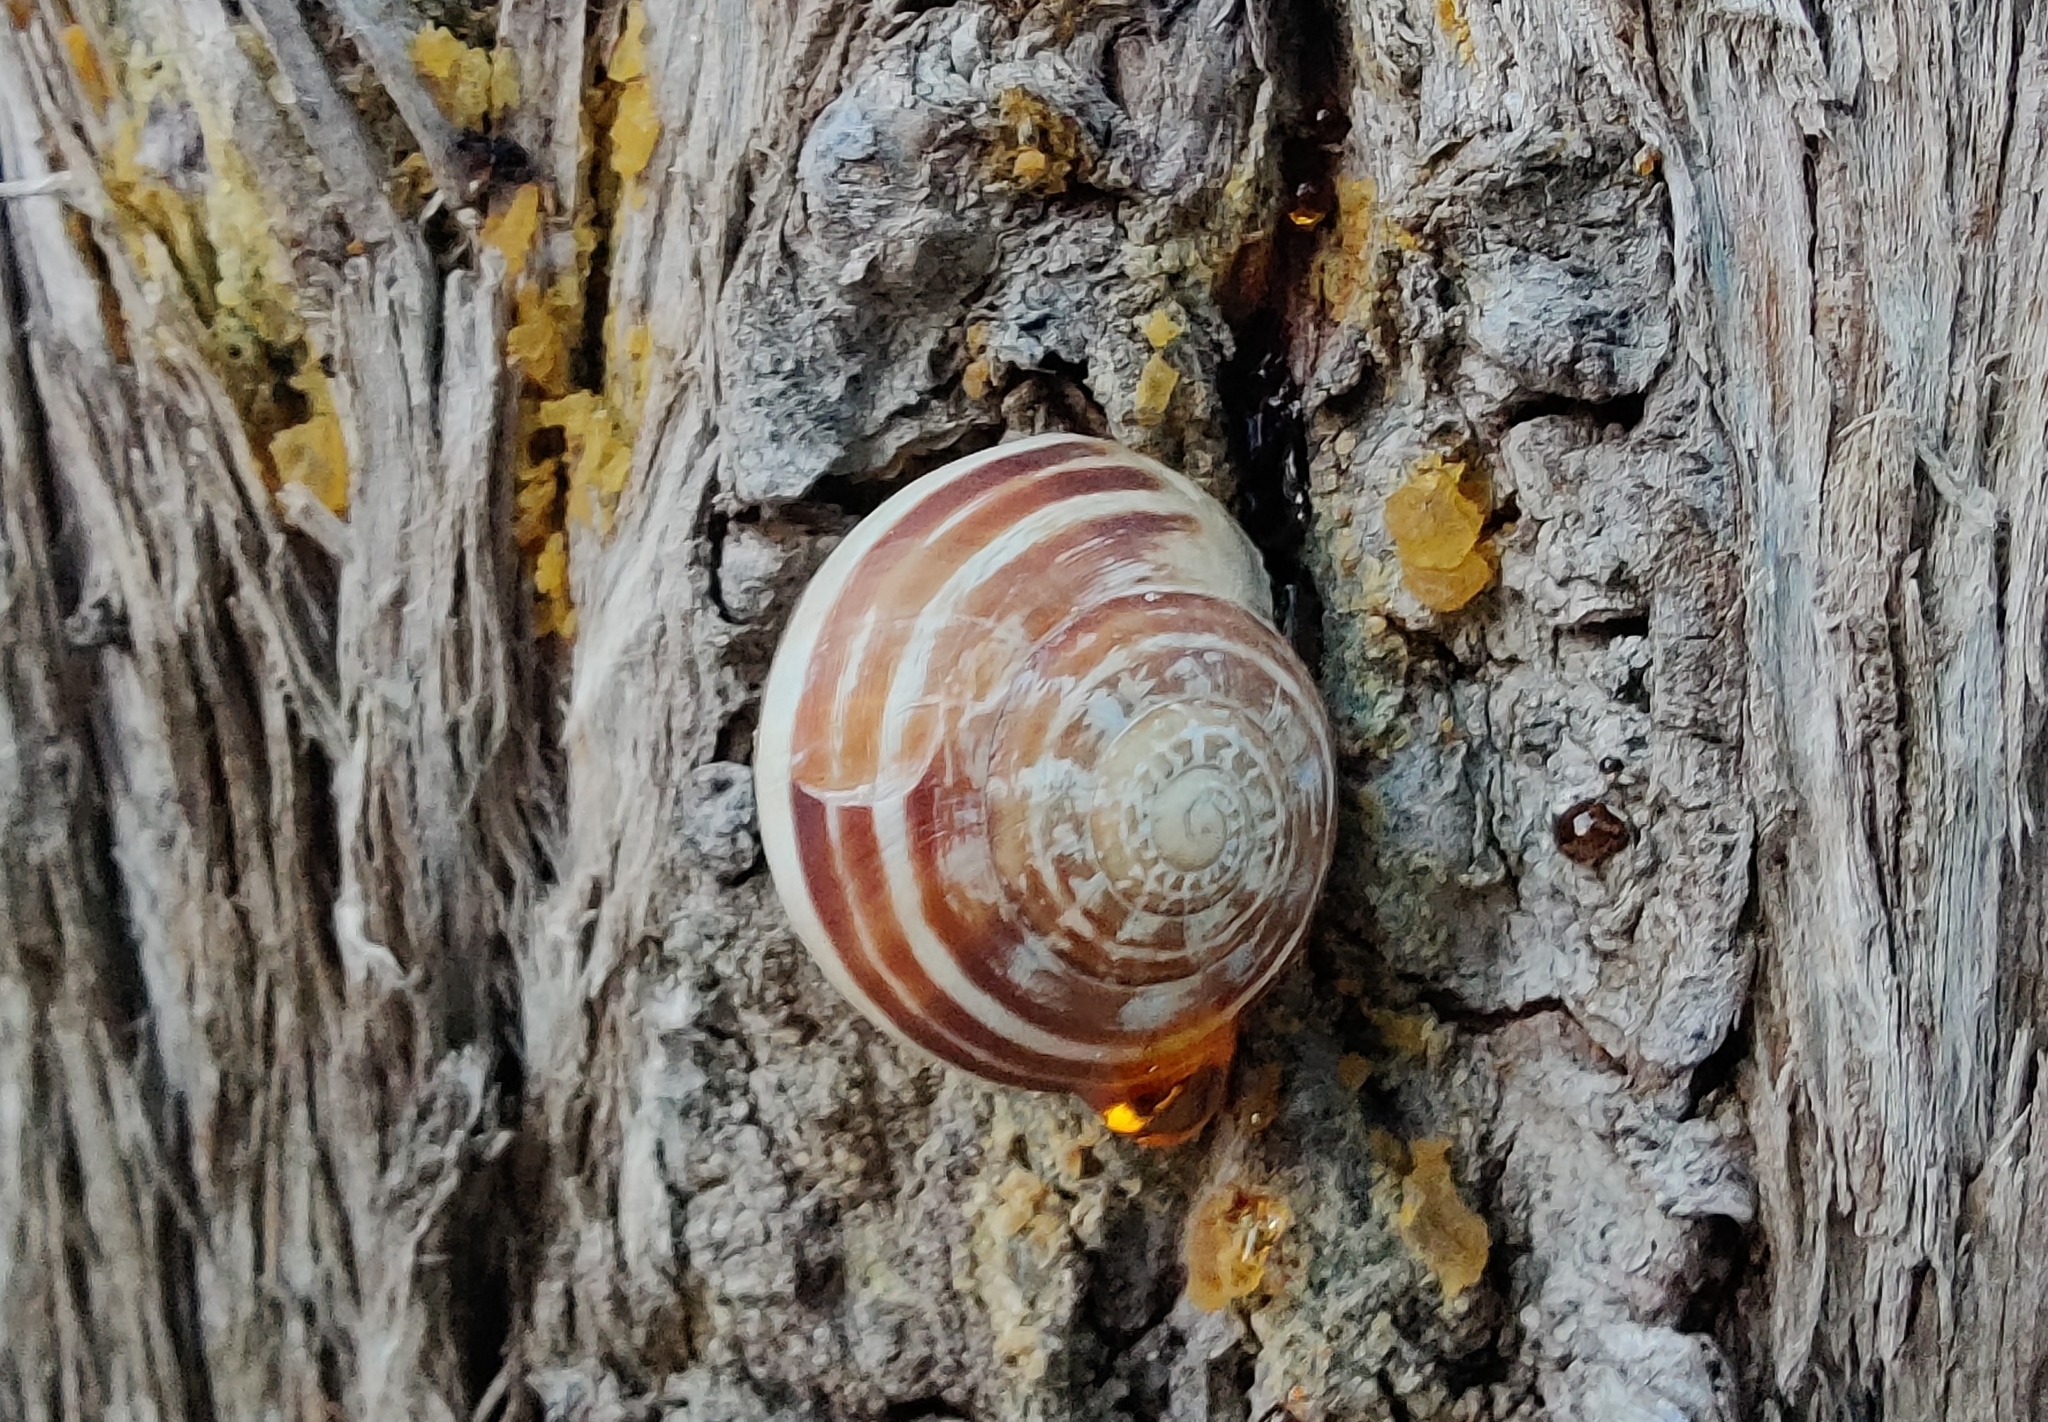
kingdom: Animalia
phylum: Mollusca
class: Gastropoda
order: Stylommatophora
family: Helicidae
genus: Eobania
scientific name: Eobania vermiculata
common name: Chocolateband snail
